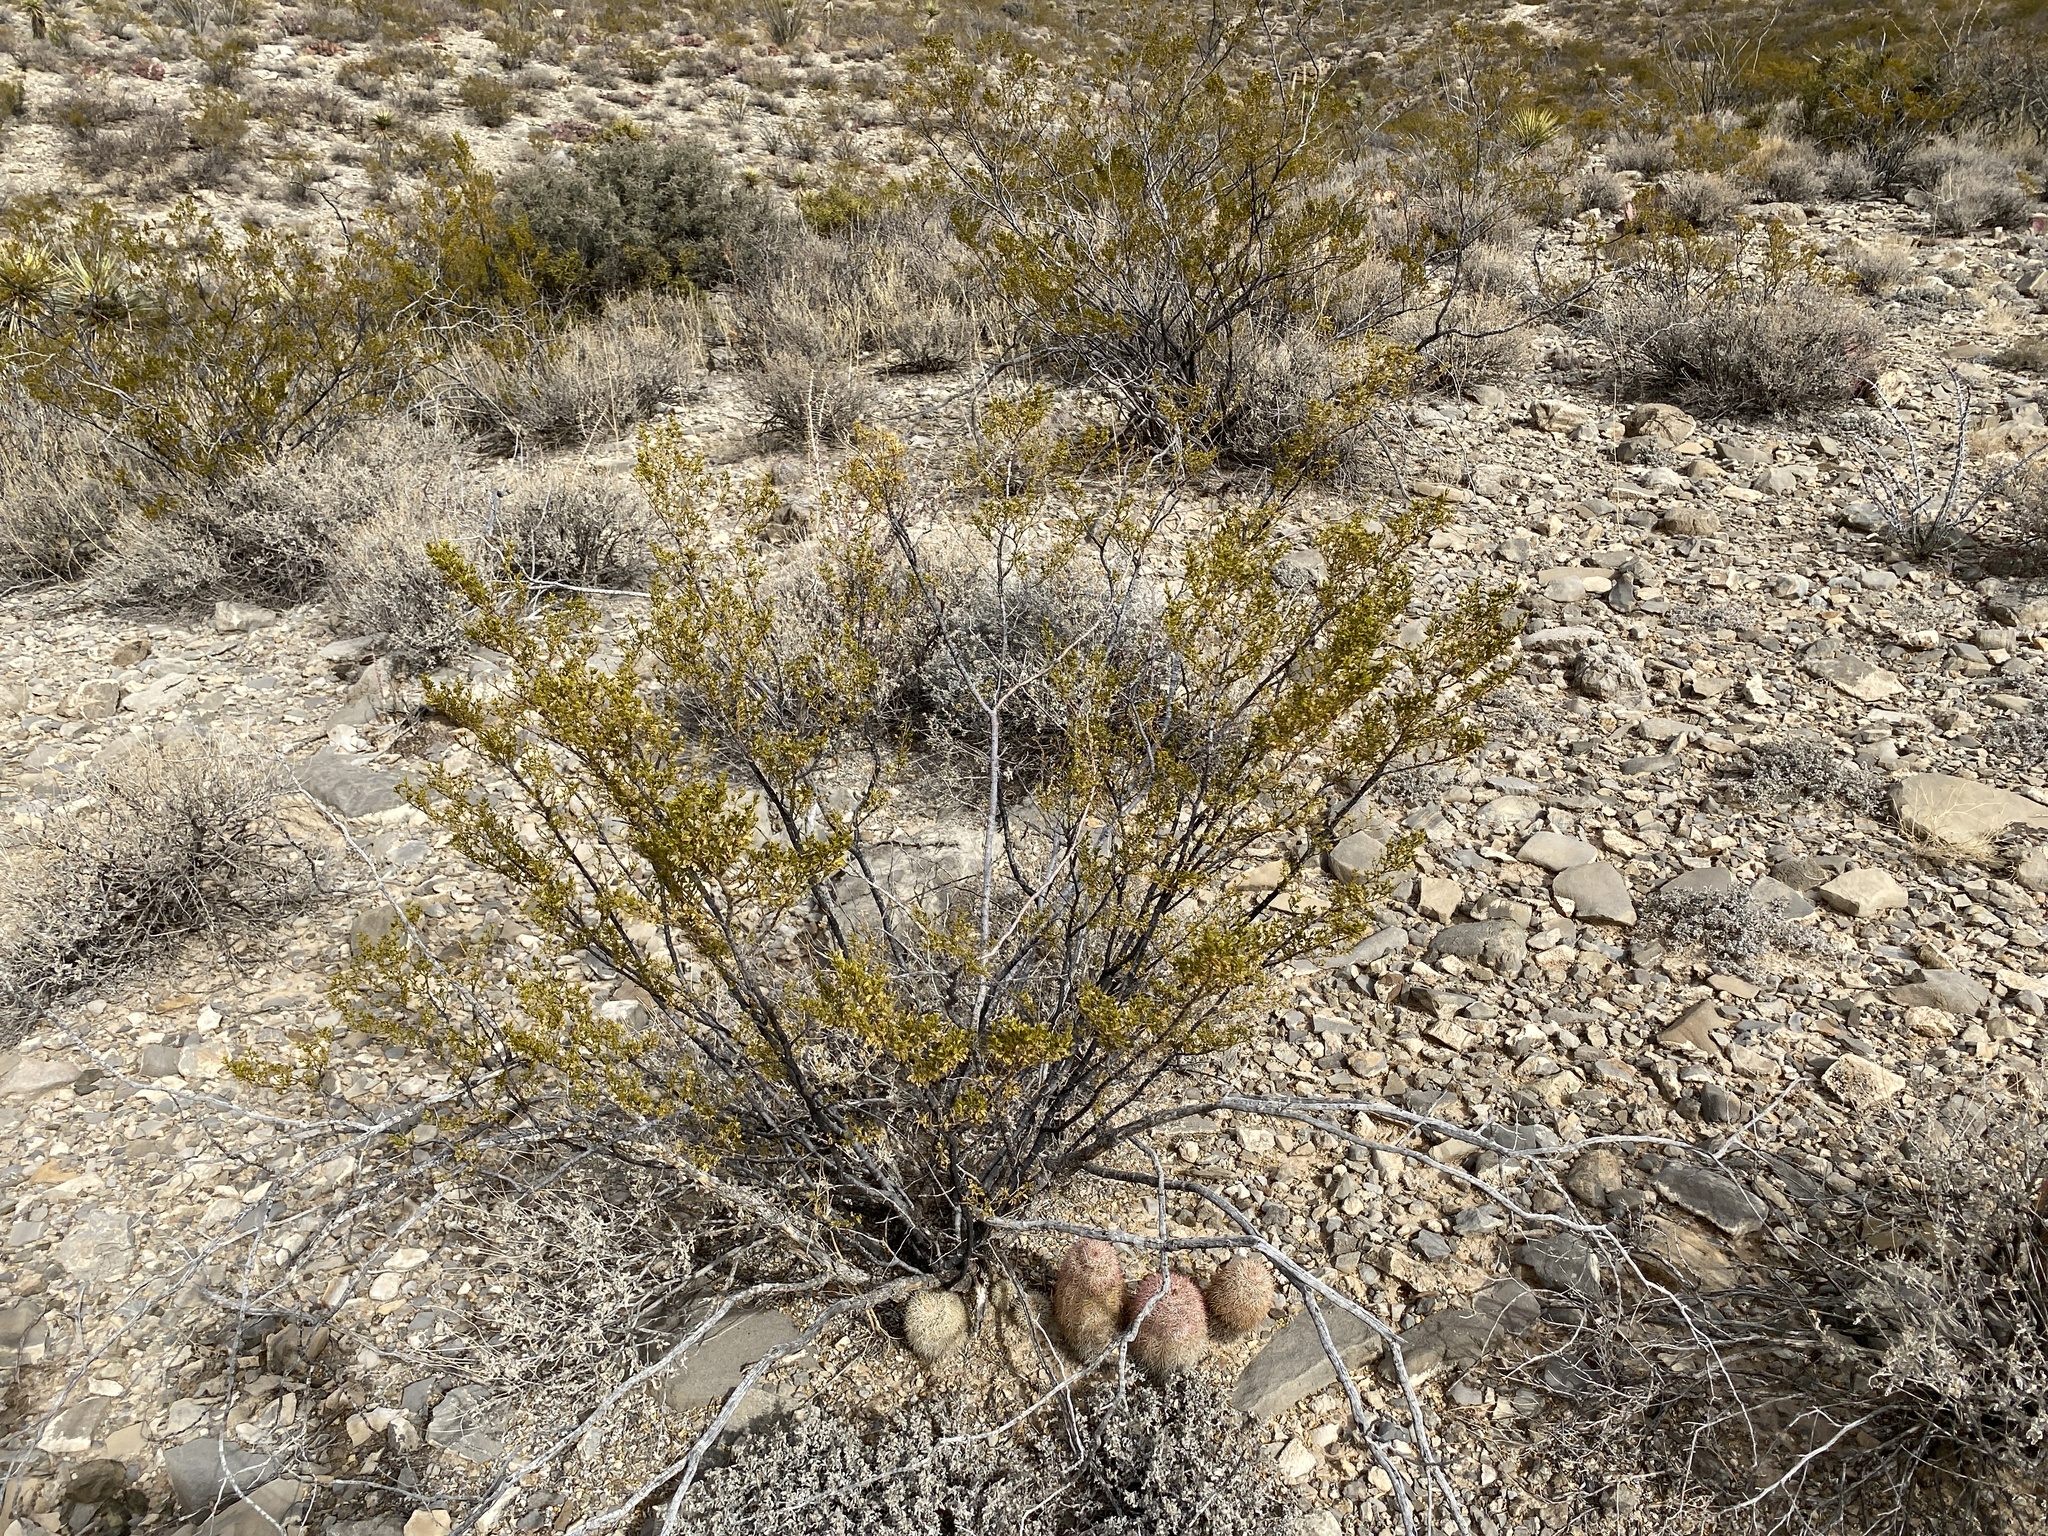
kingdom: Plantae
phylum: Tracheophyta
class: Magnoliopsida
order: Zygophyllales
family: Zygophyllaceae
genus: Larrea
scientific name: Larrea tridentata
